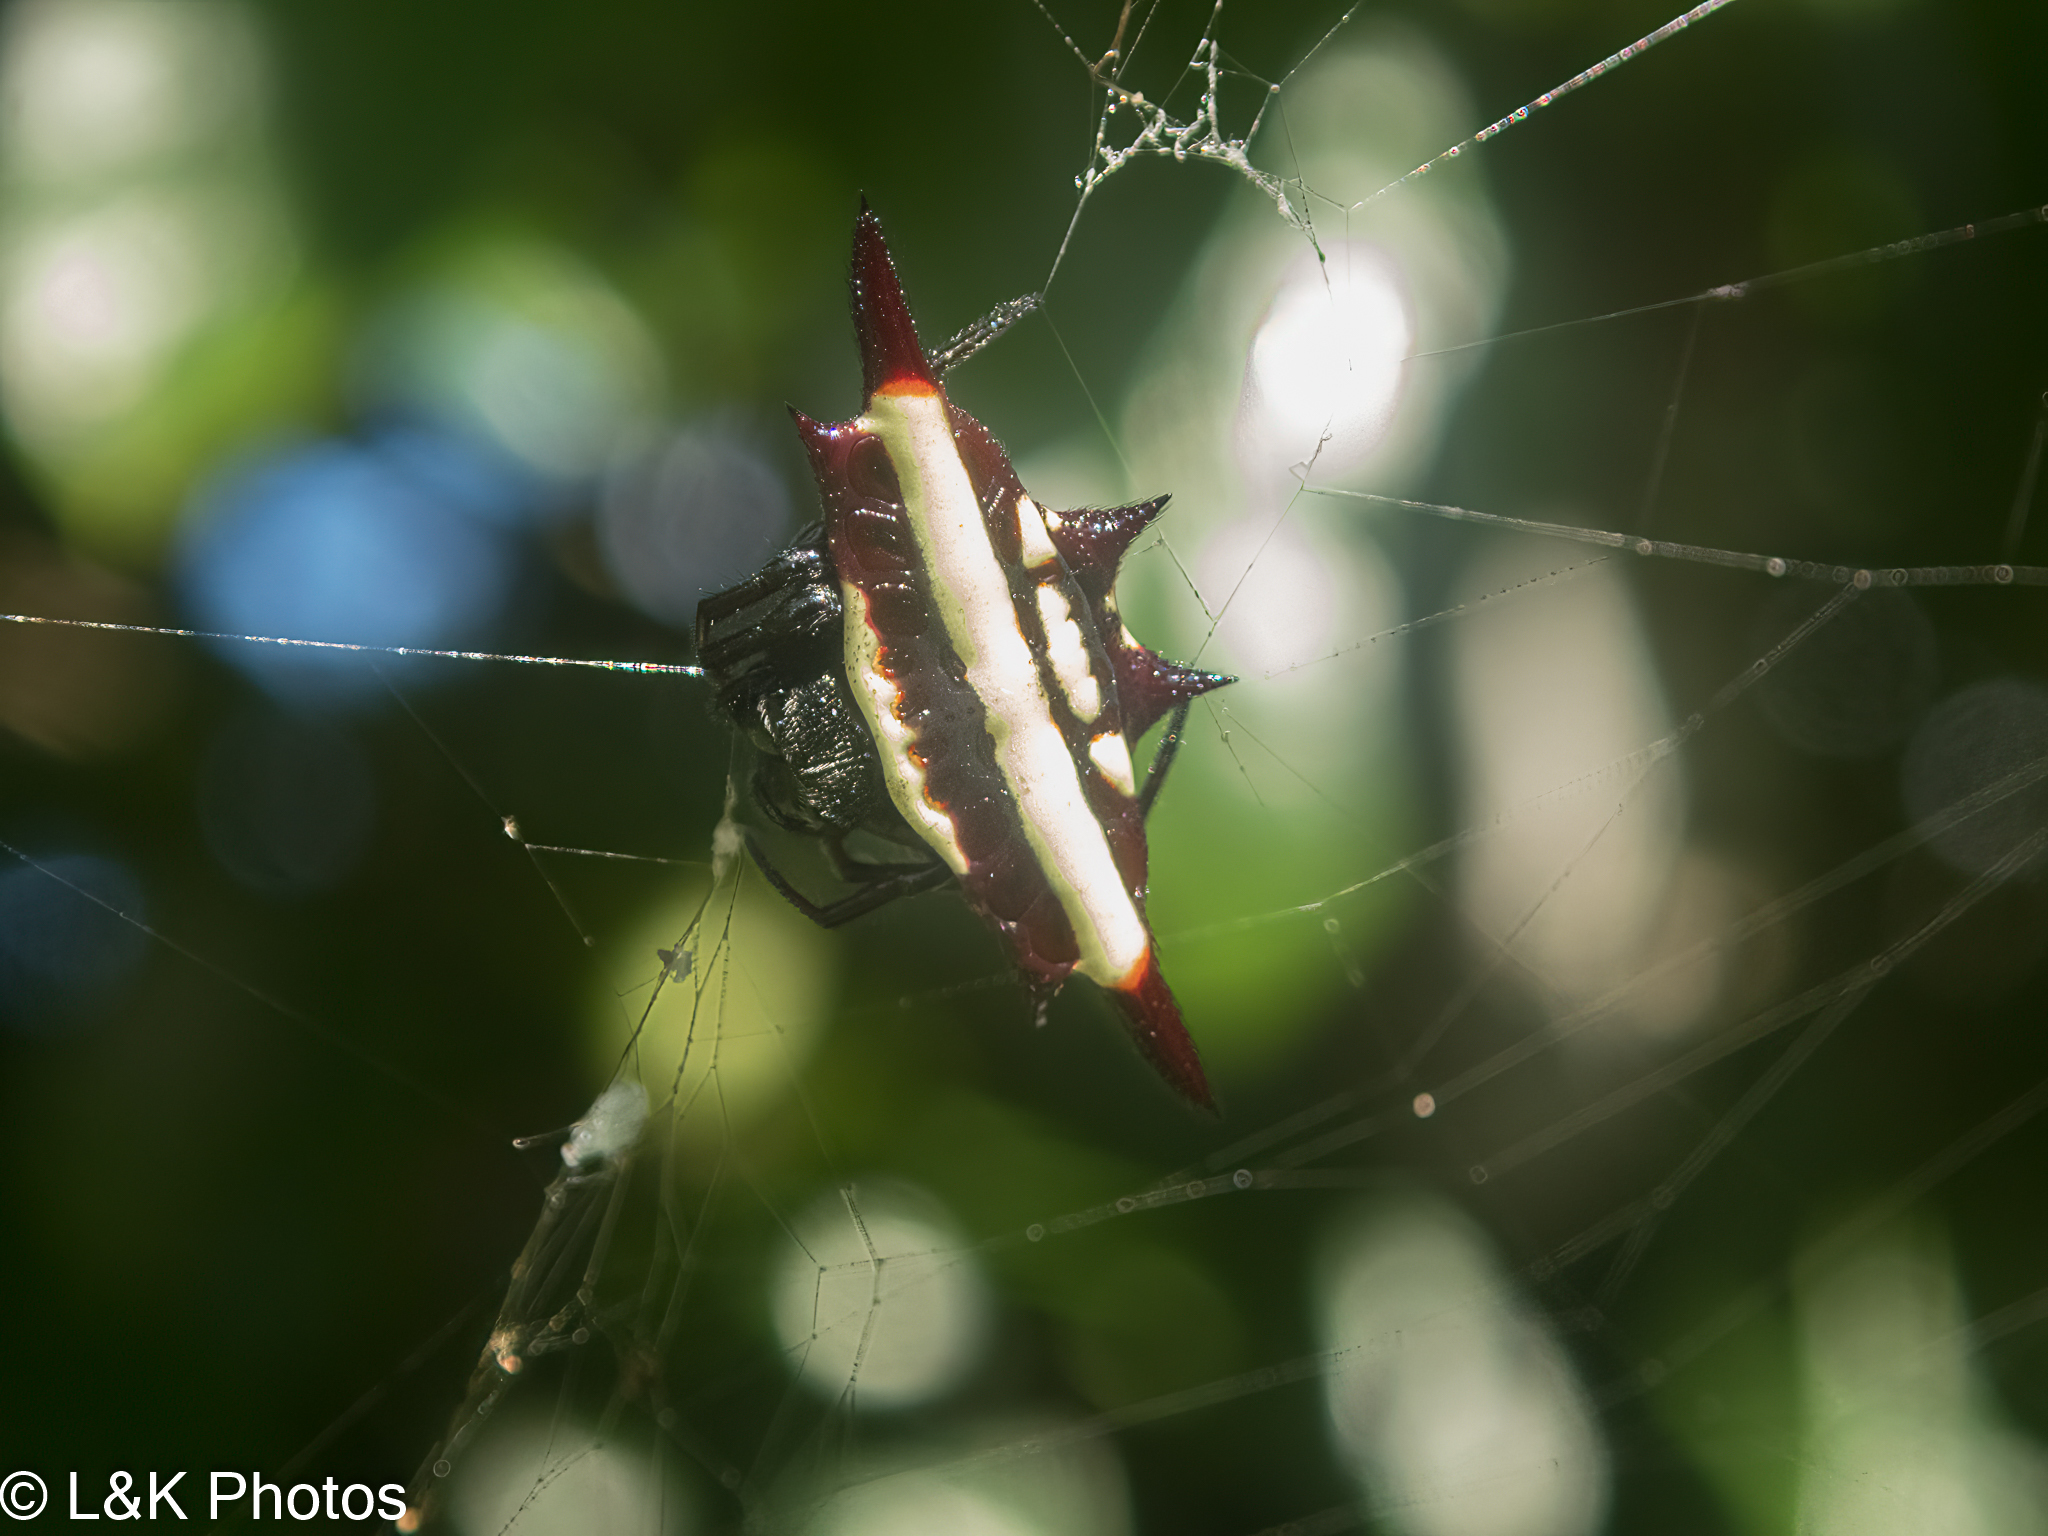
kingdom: Animalia
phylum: Arthropoda
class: Arachnida
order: Araneae
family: Araneidae
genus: Gasteracantha
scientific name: Gasteracantha fornicata
